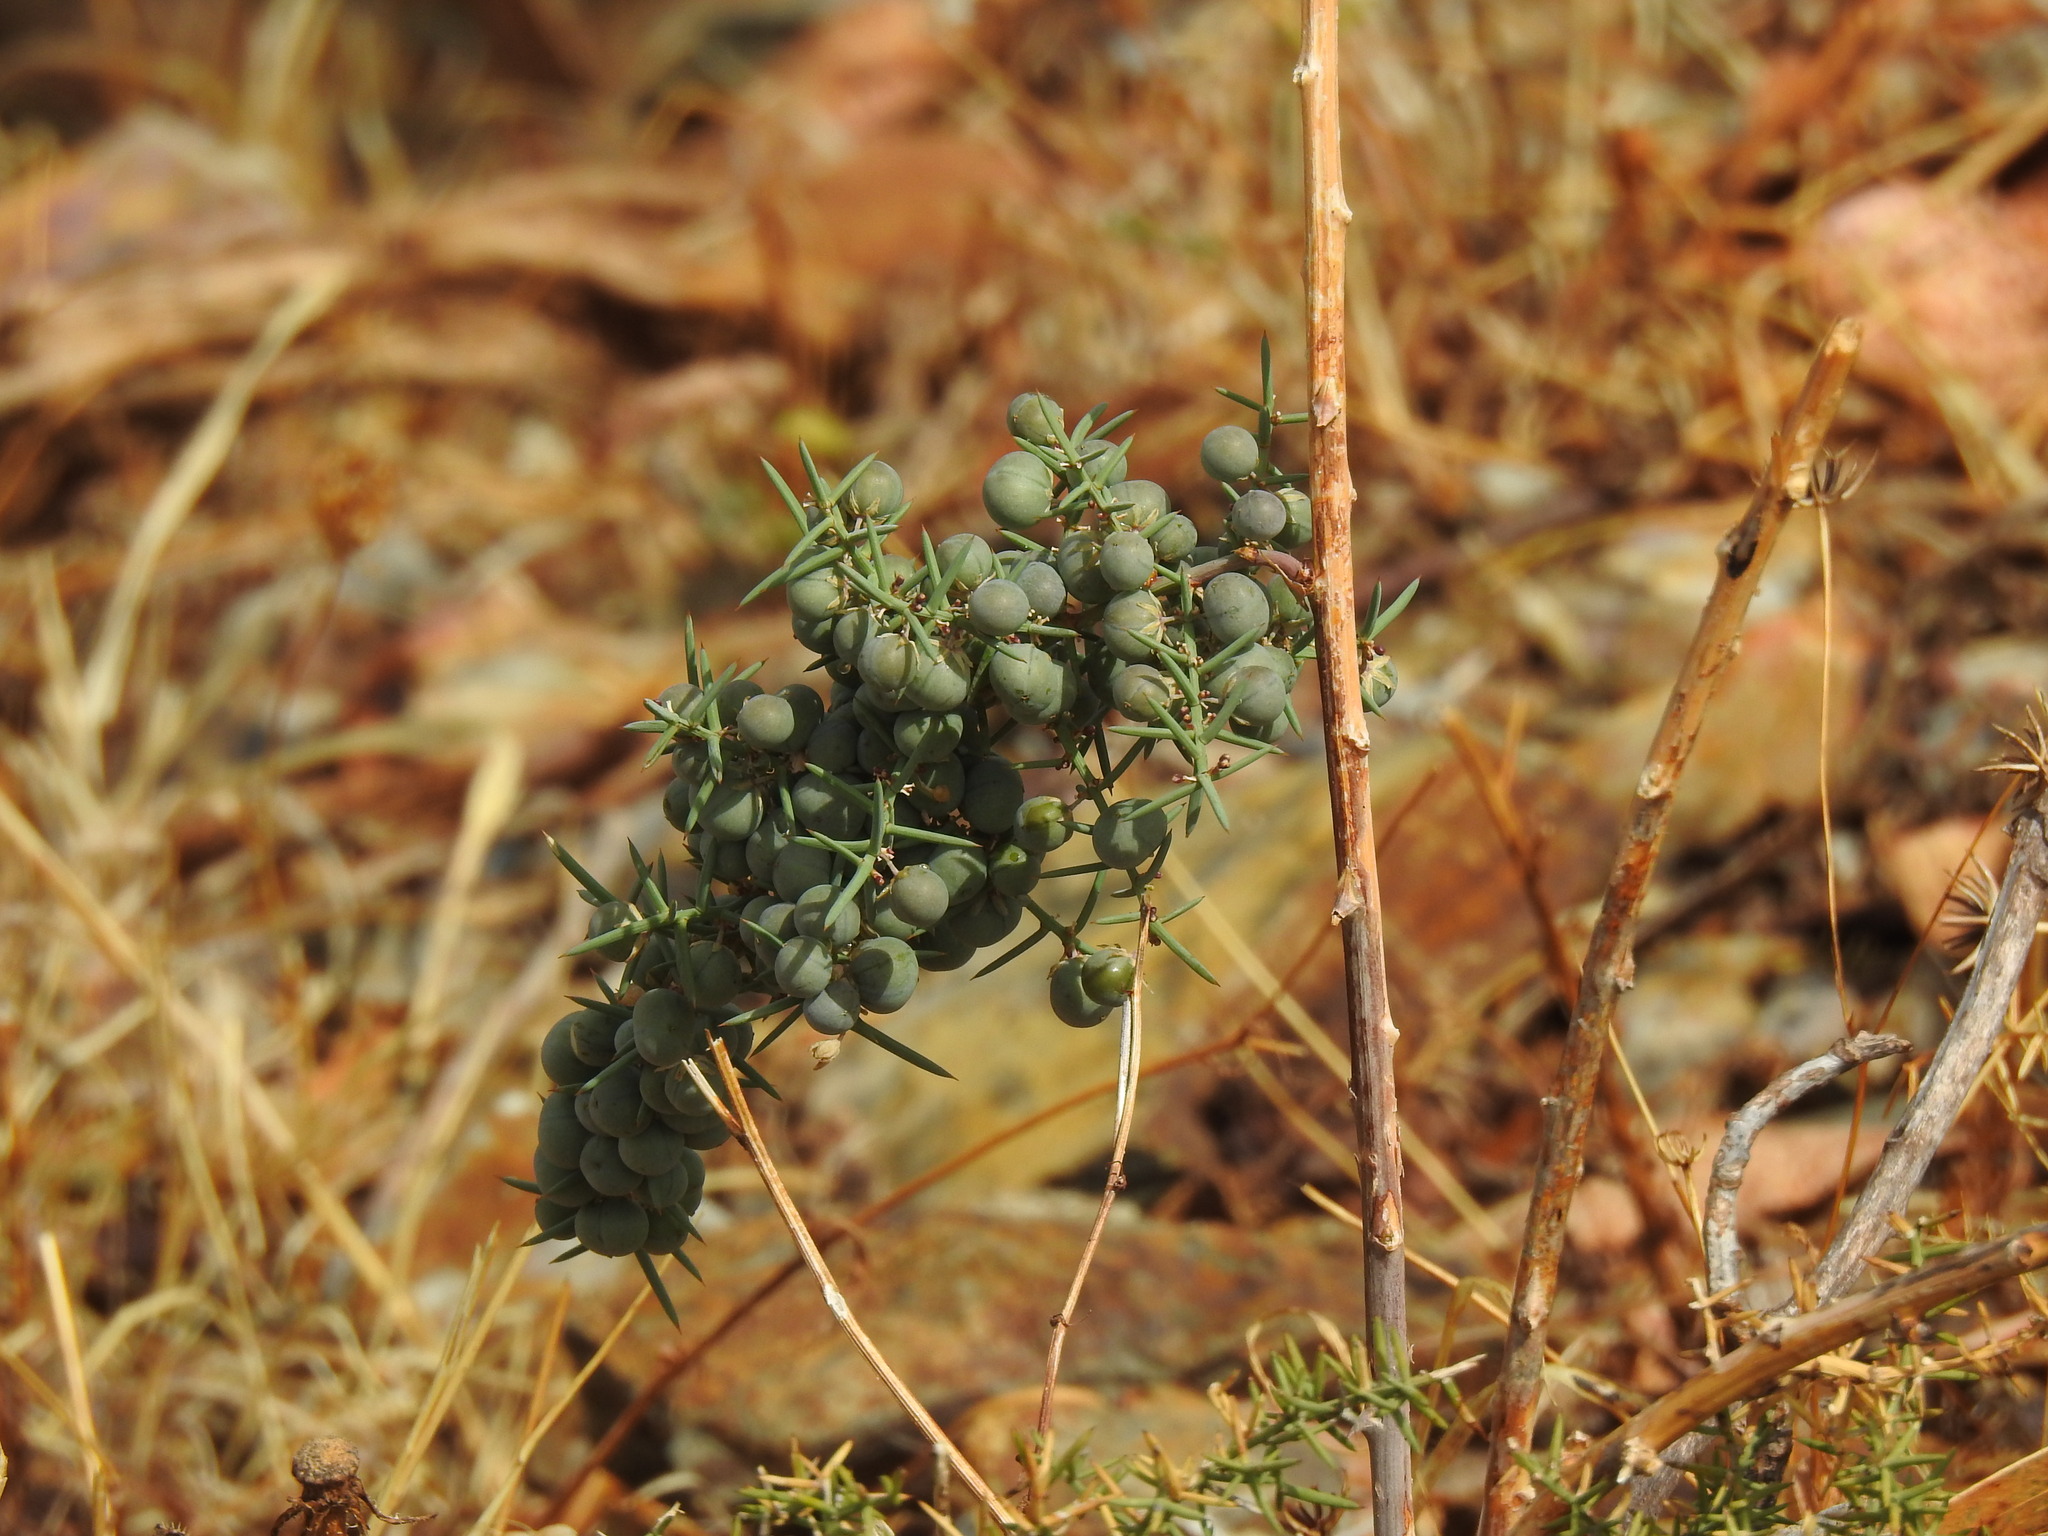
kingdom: Plantae
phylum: Tracheophyta
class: Liliopsida
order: Asparagales
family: Asparagaceae
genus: Asparagus
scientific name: Asparagus aphyllus
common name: Mediterranean asparagus
